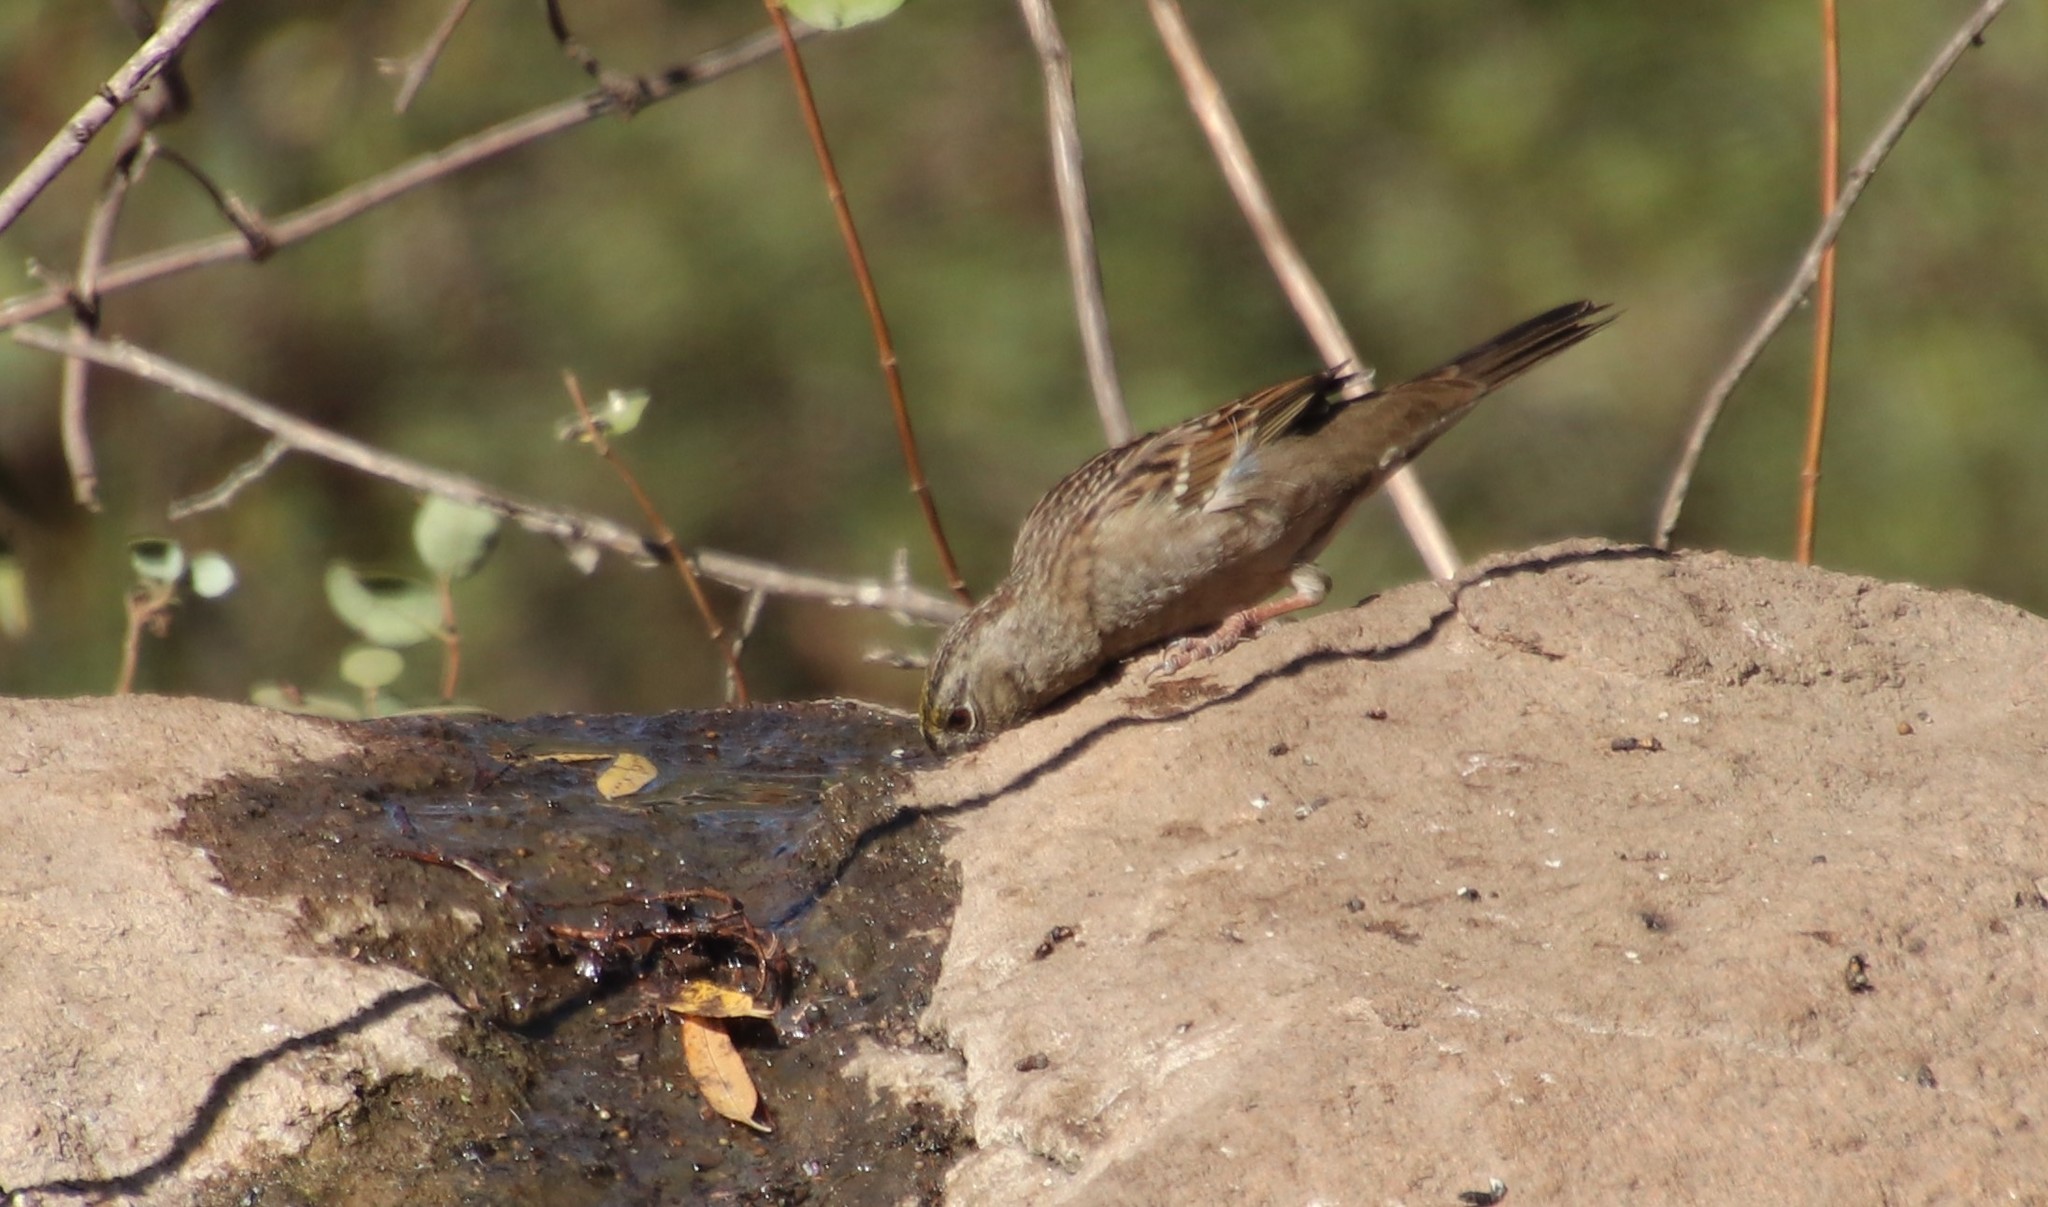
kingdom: Animalia
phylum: Chordata
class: Aves
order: Passeriformes
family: Passerellidae
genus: Zonotrichia
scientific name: Zonotrichia atricapilla
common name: Golden-crowned sparrow
